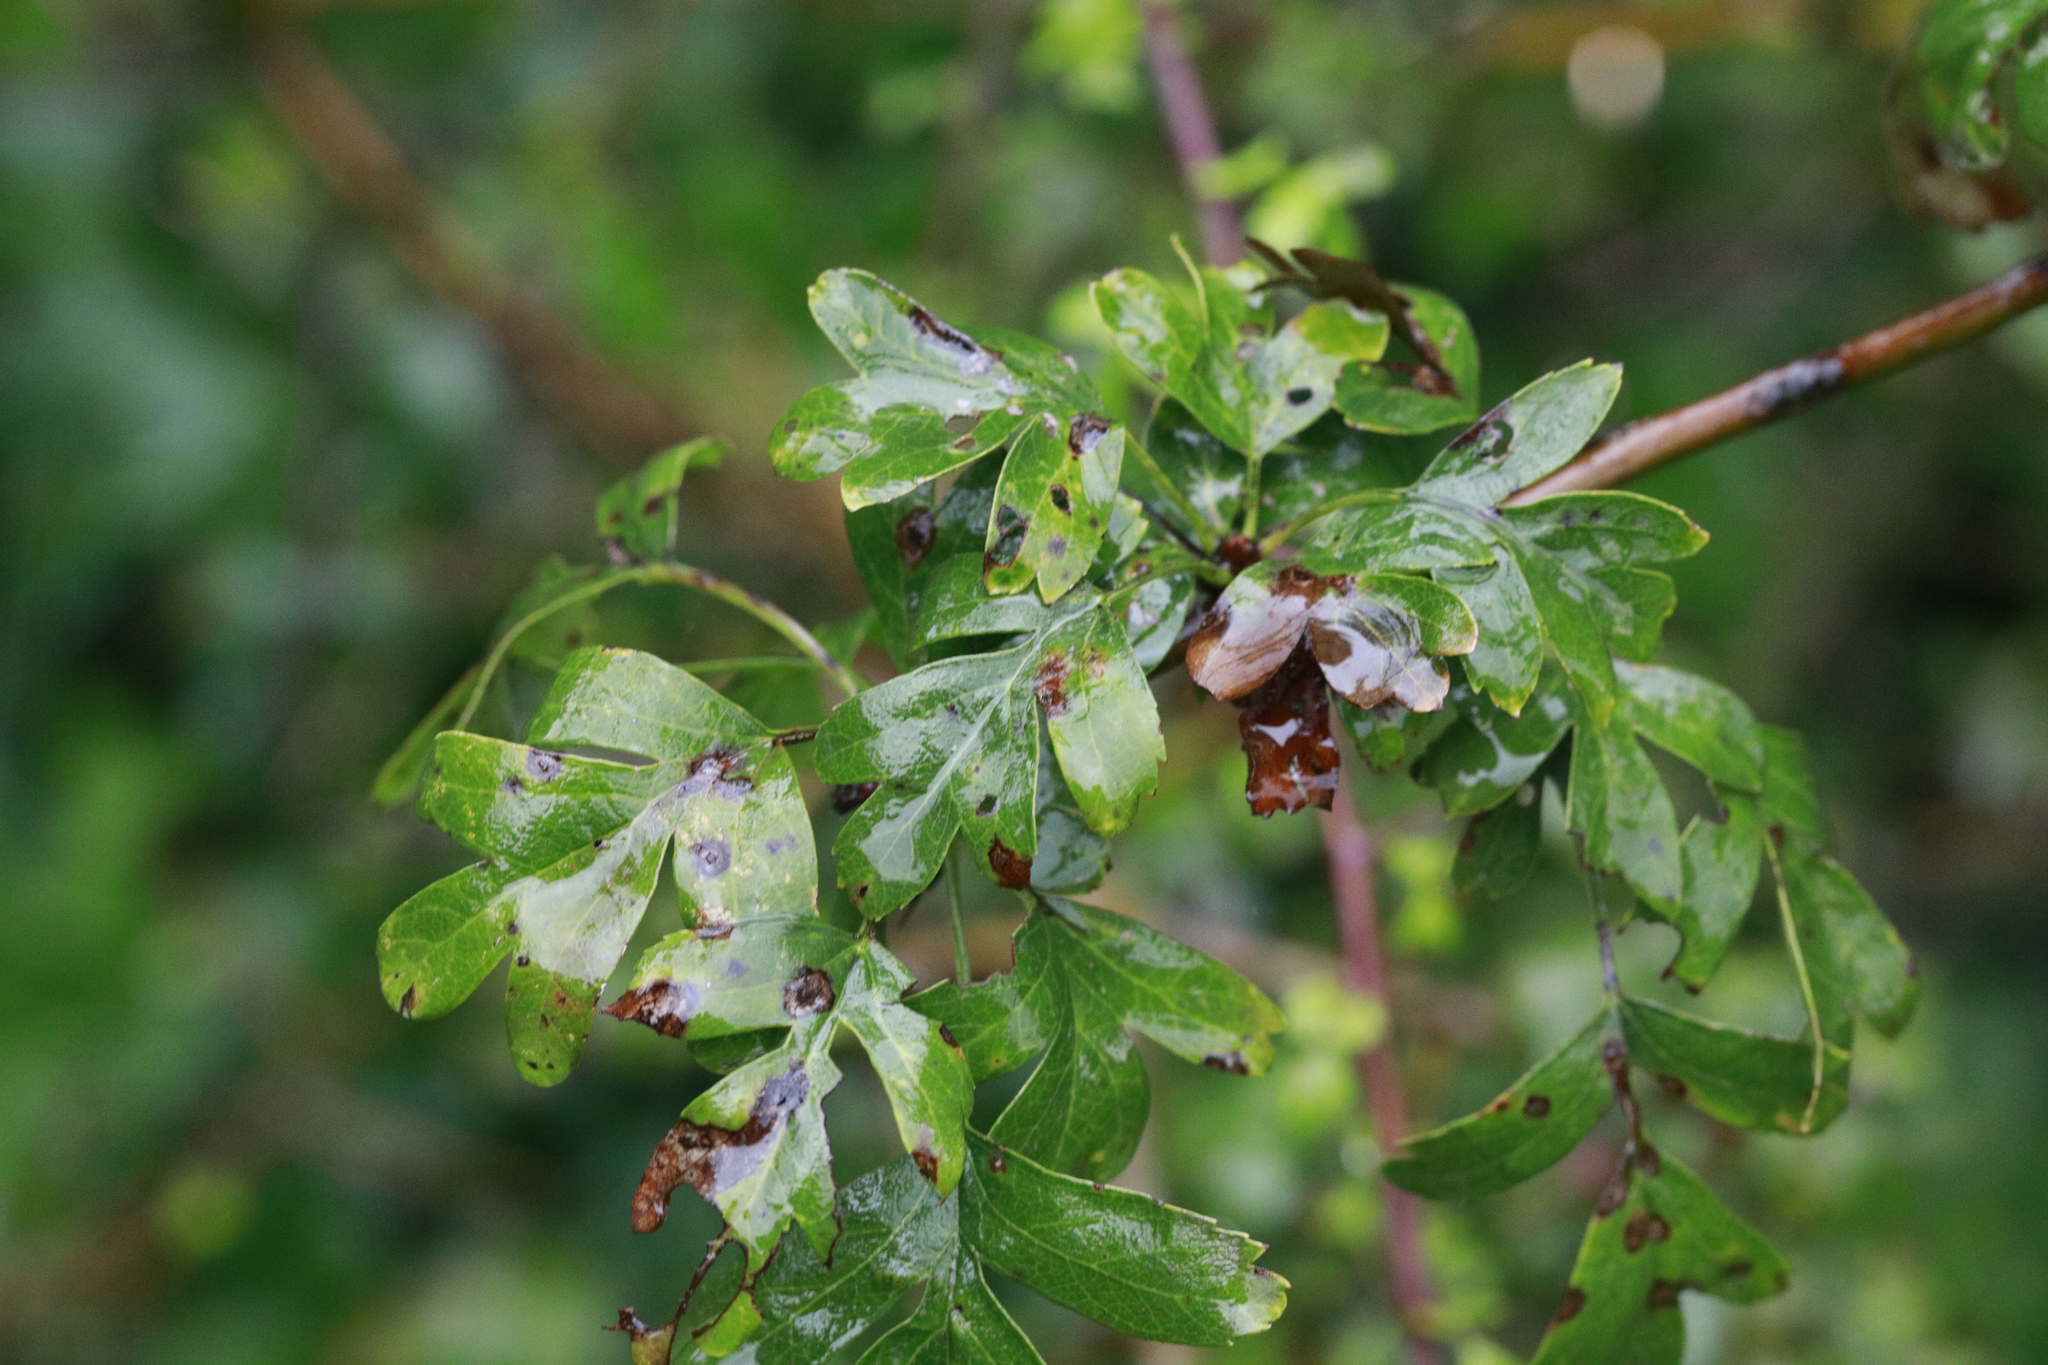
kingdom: Plantae
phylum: Tracheophyta
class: Magnoliopsida
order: Rosales
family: Rosaceae
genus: Crataegus
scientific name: Crataegus monogyna
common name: Hawthorn
